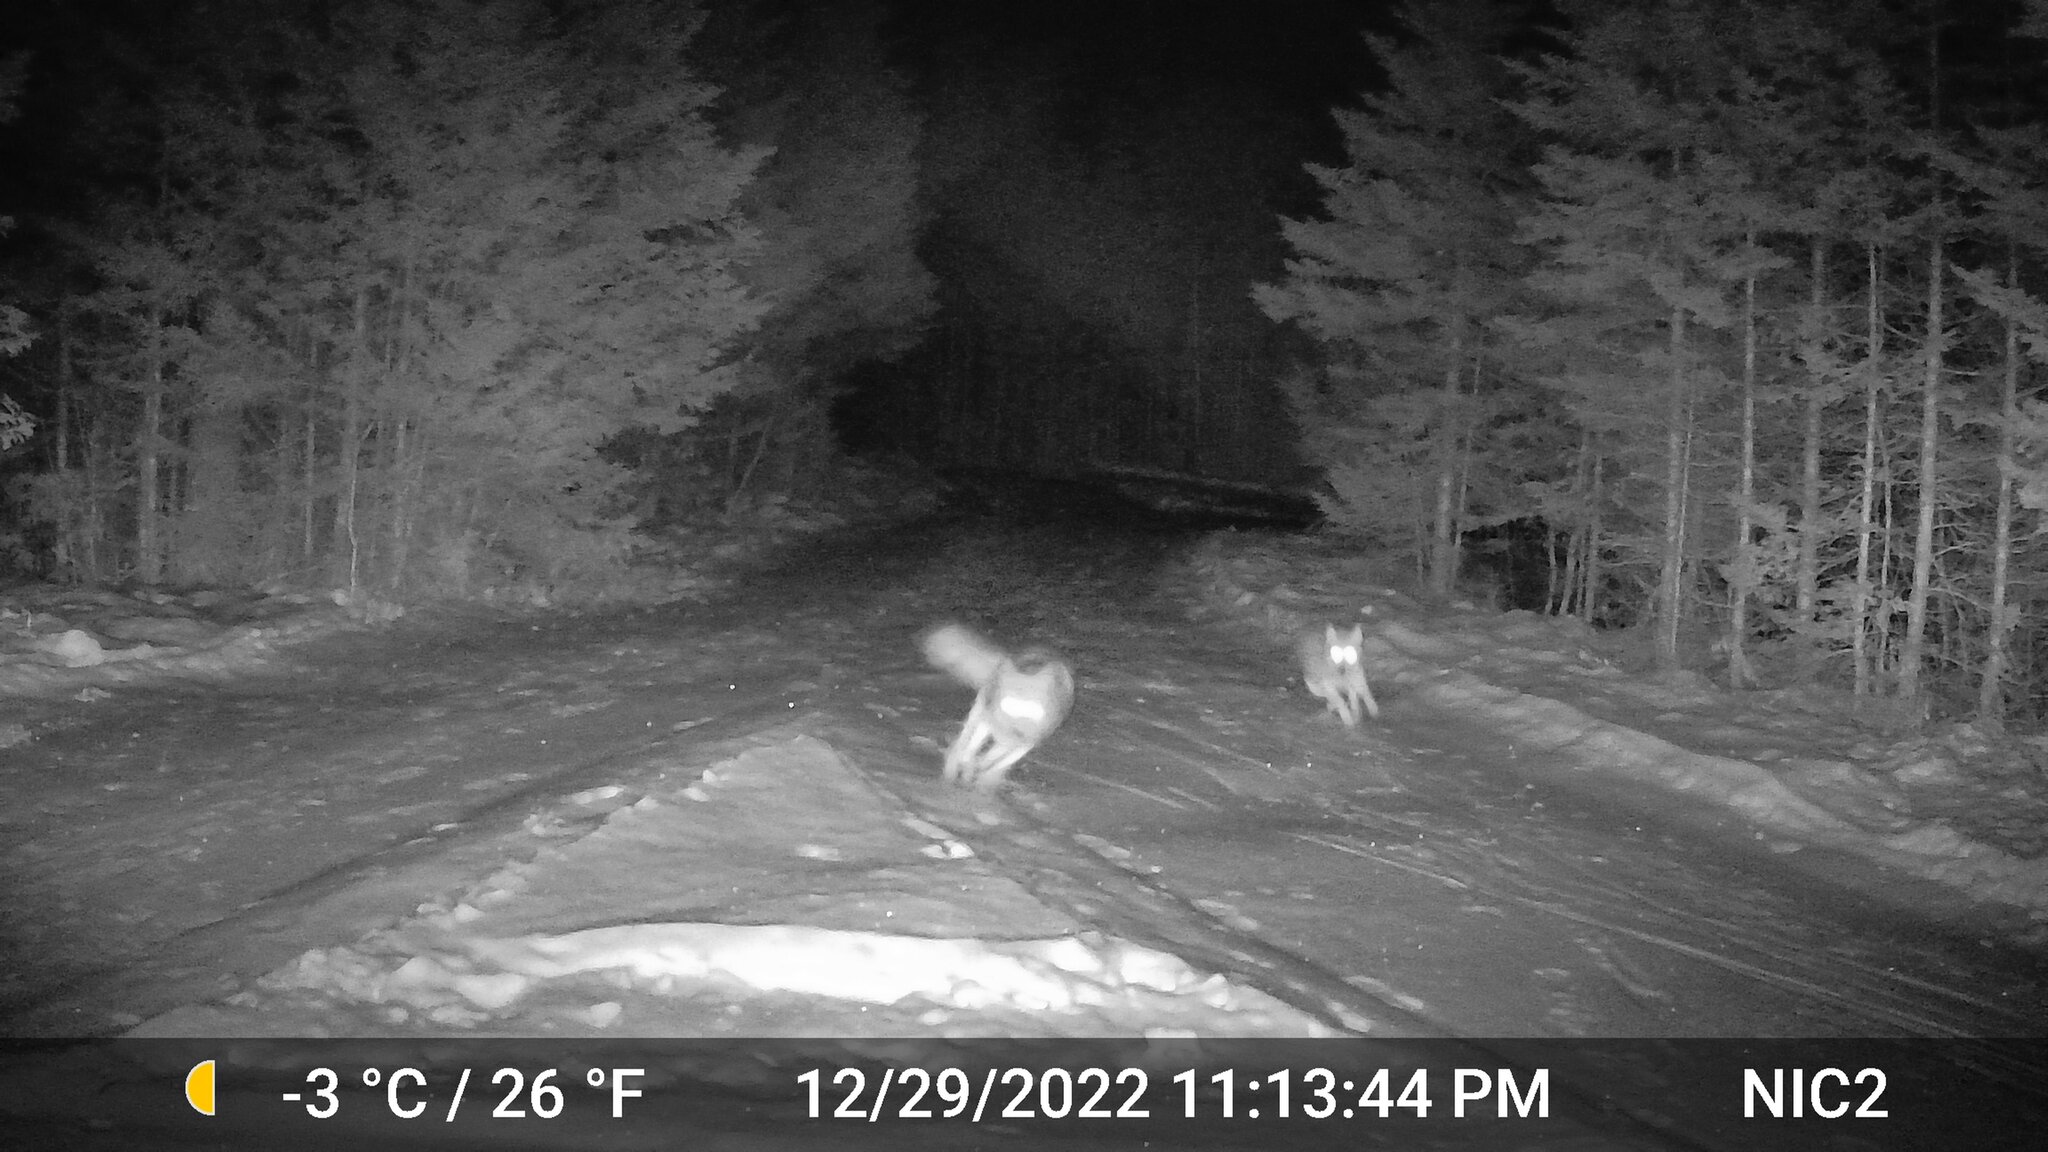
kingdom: Animalia
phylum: Chordata
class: Mammalia
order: Carnivora
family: Canidae
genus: Canis
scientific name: Canis latrans
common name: Coyote
